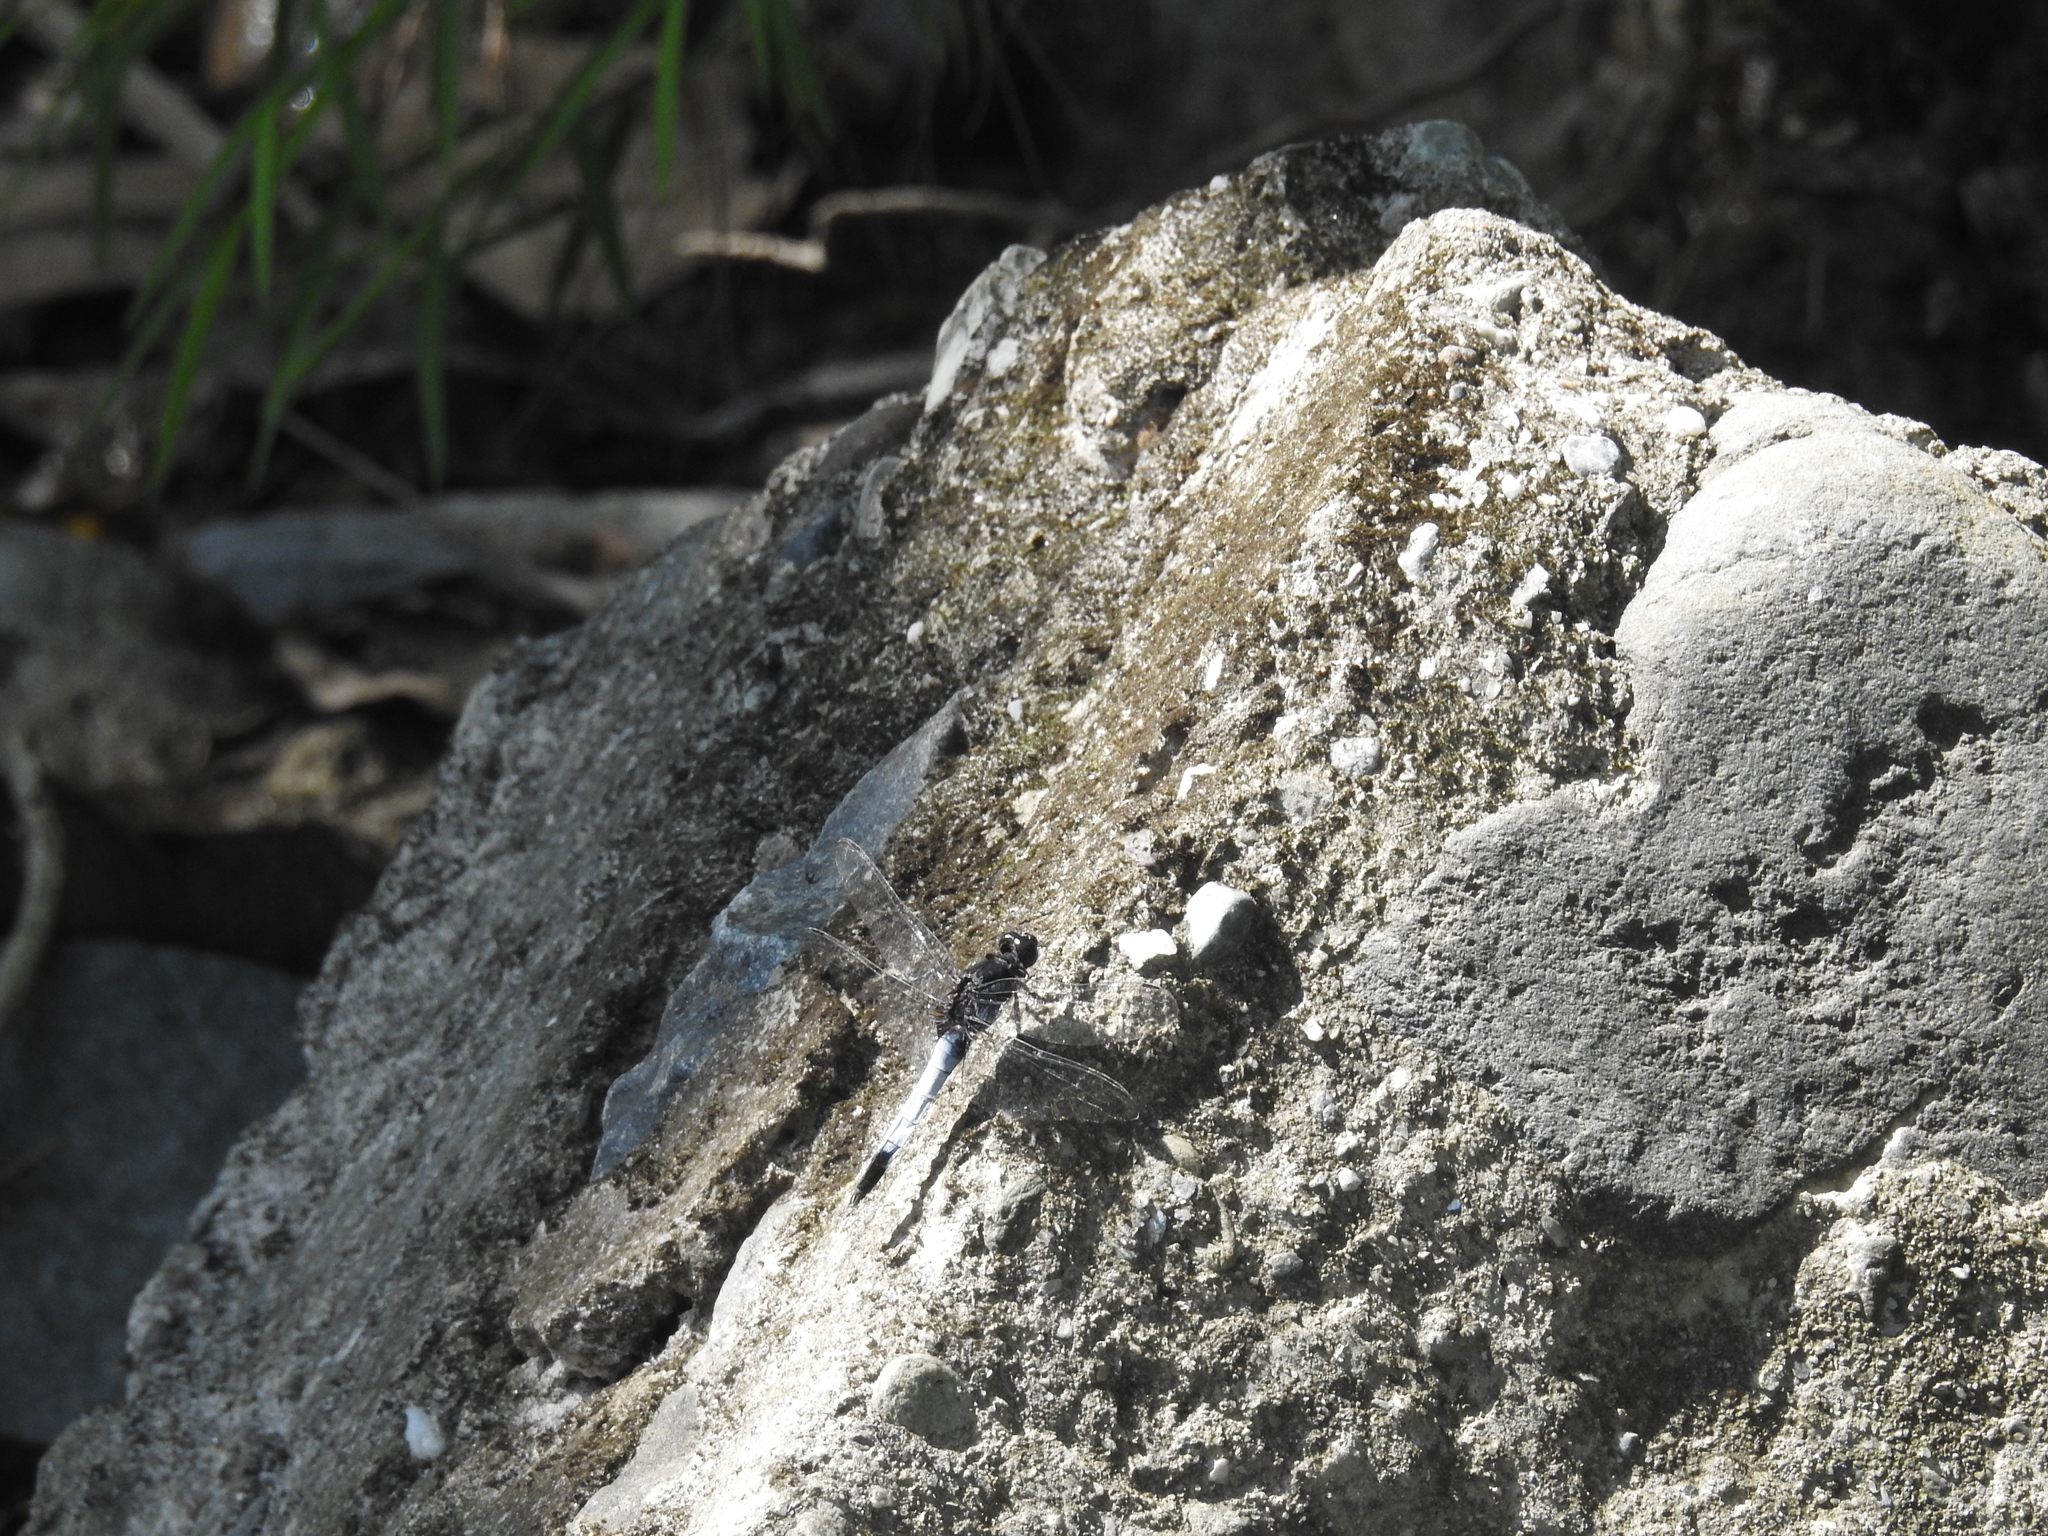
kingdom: Animalia
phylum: Arthropoda
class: Insecta
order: Odonata
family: Libellulidae
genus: Orthetrum
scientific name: Orthetrum triangulare
